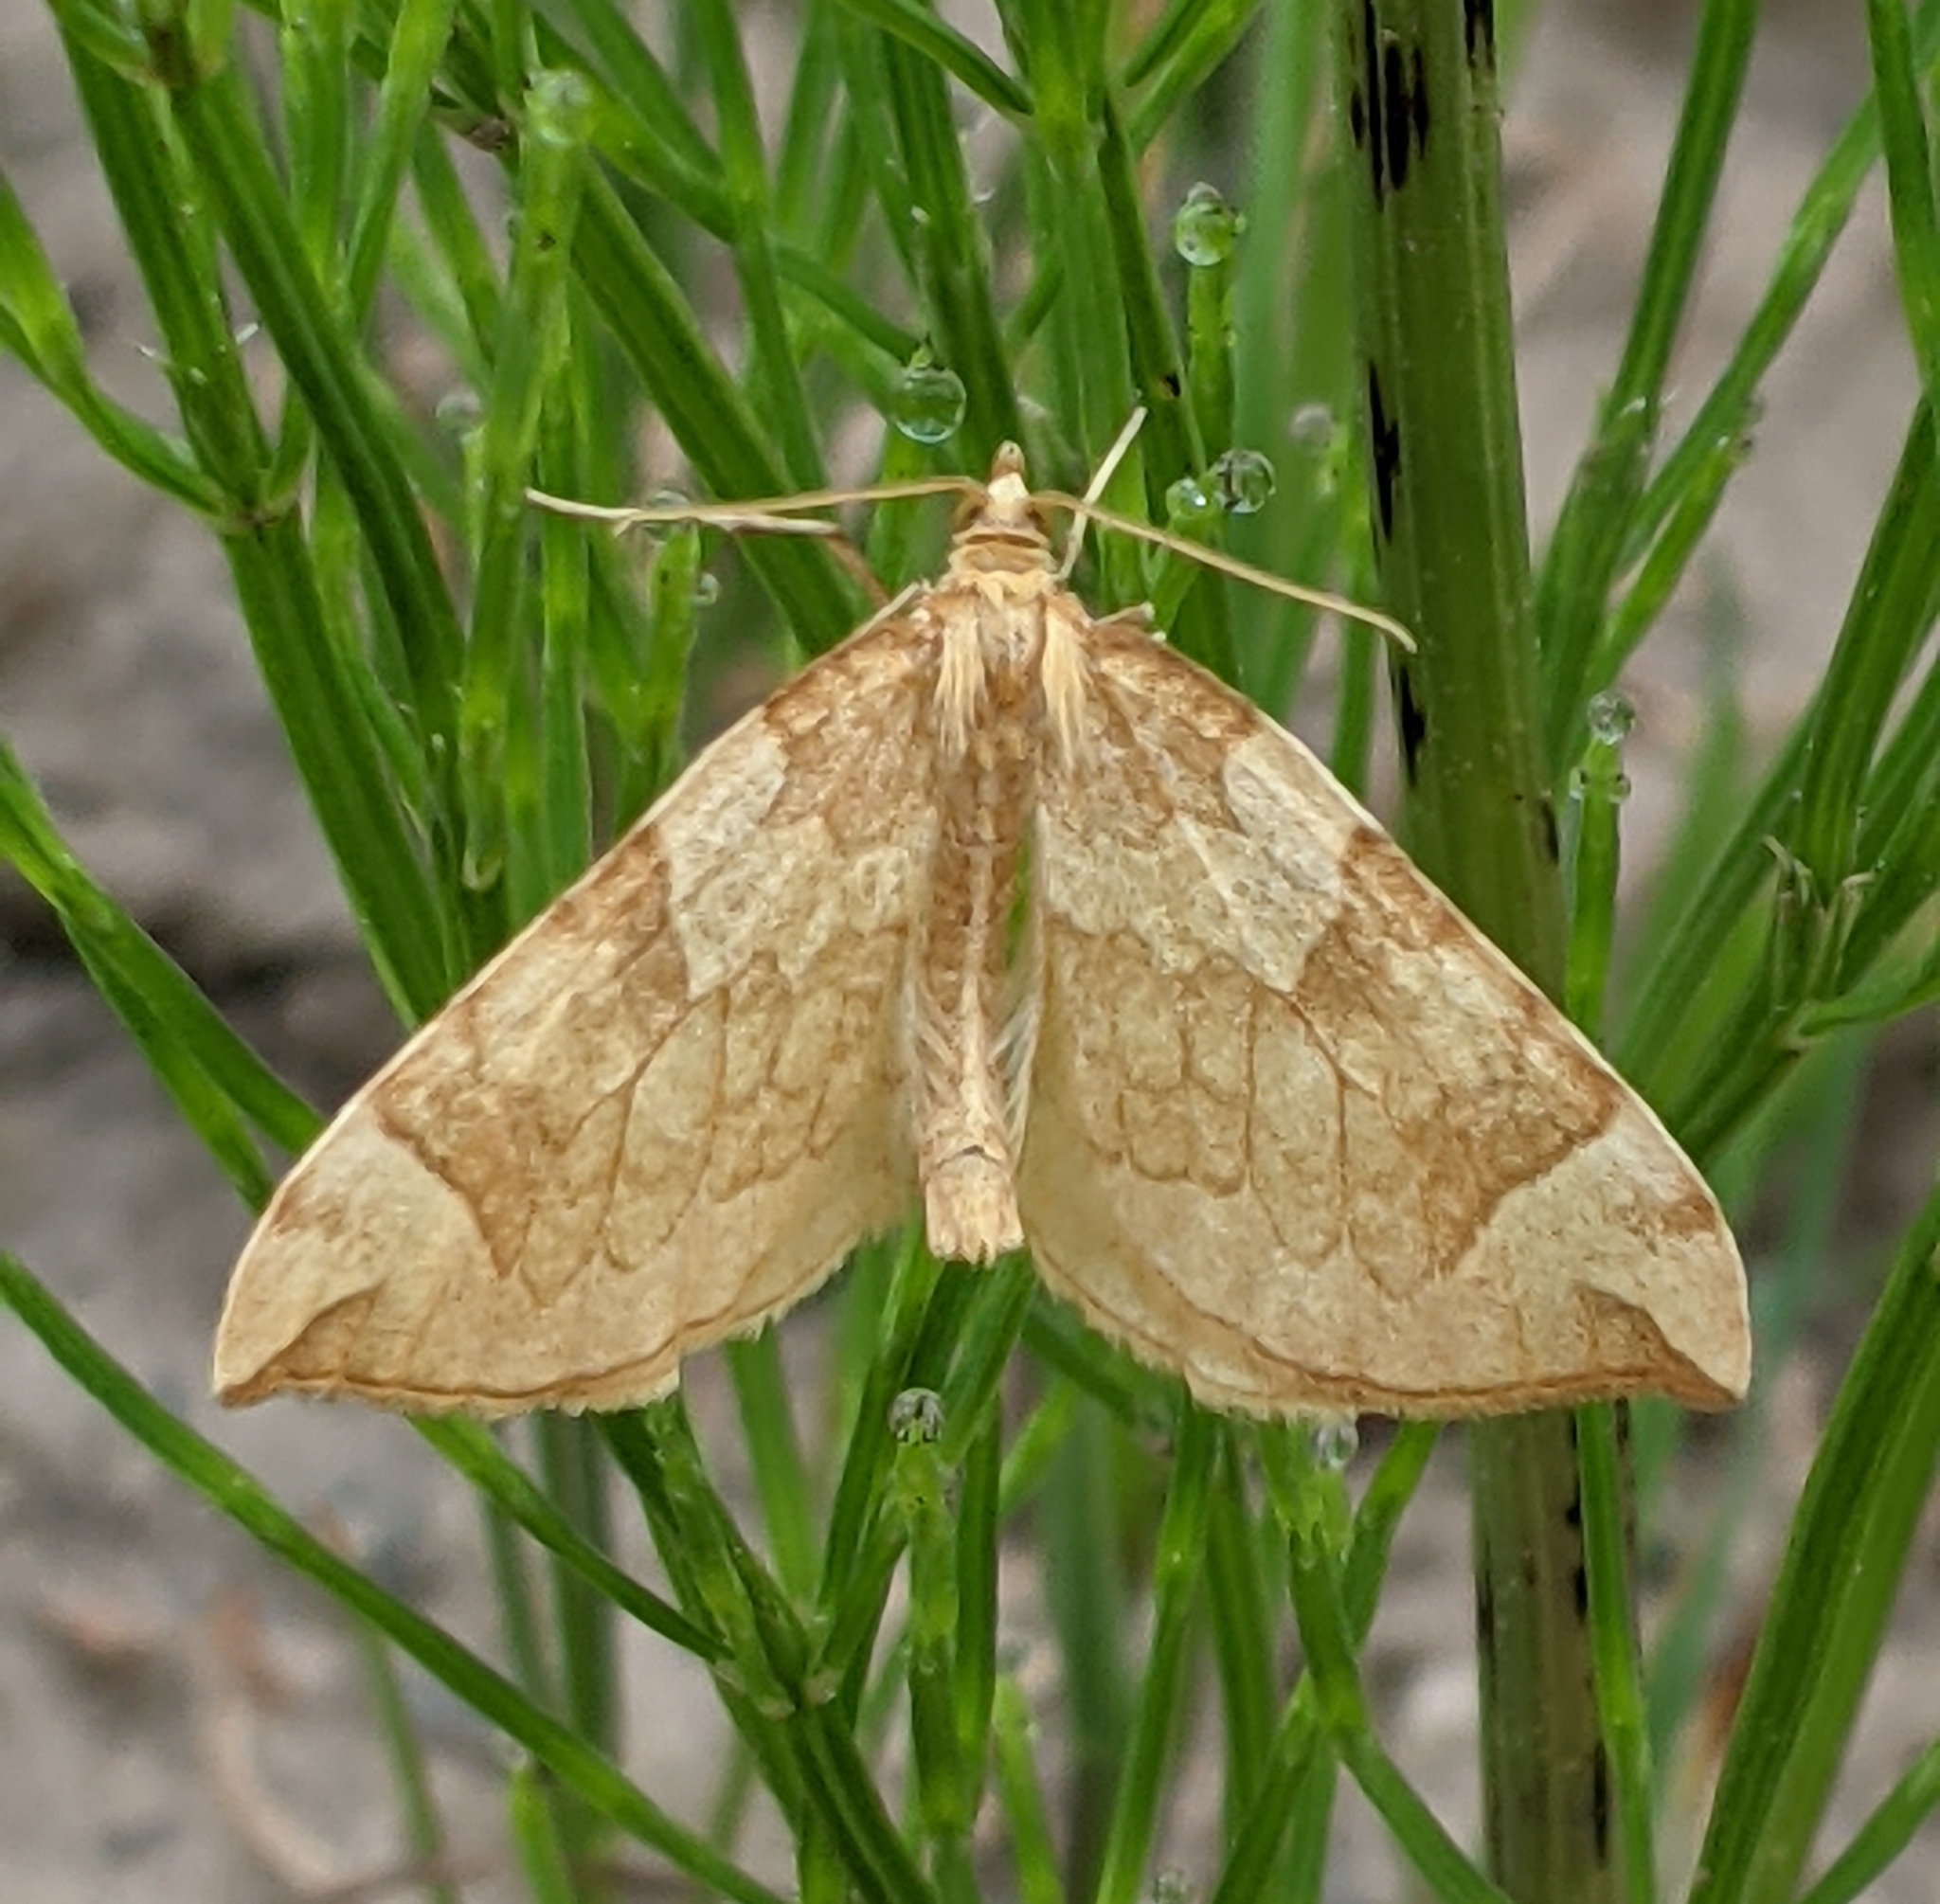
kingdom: Animalia
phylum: Arthropoda
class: Insecta
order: Lepidoptera
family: Geometridae
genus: Eulithis
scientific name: Eulithis propulsata
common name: Currant eulithis moth
